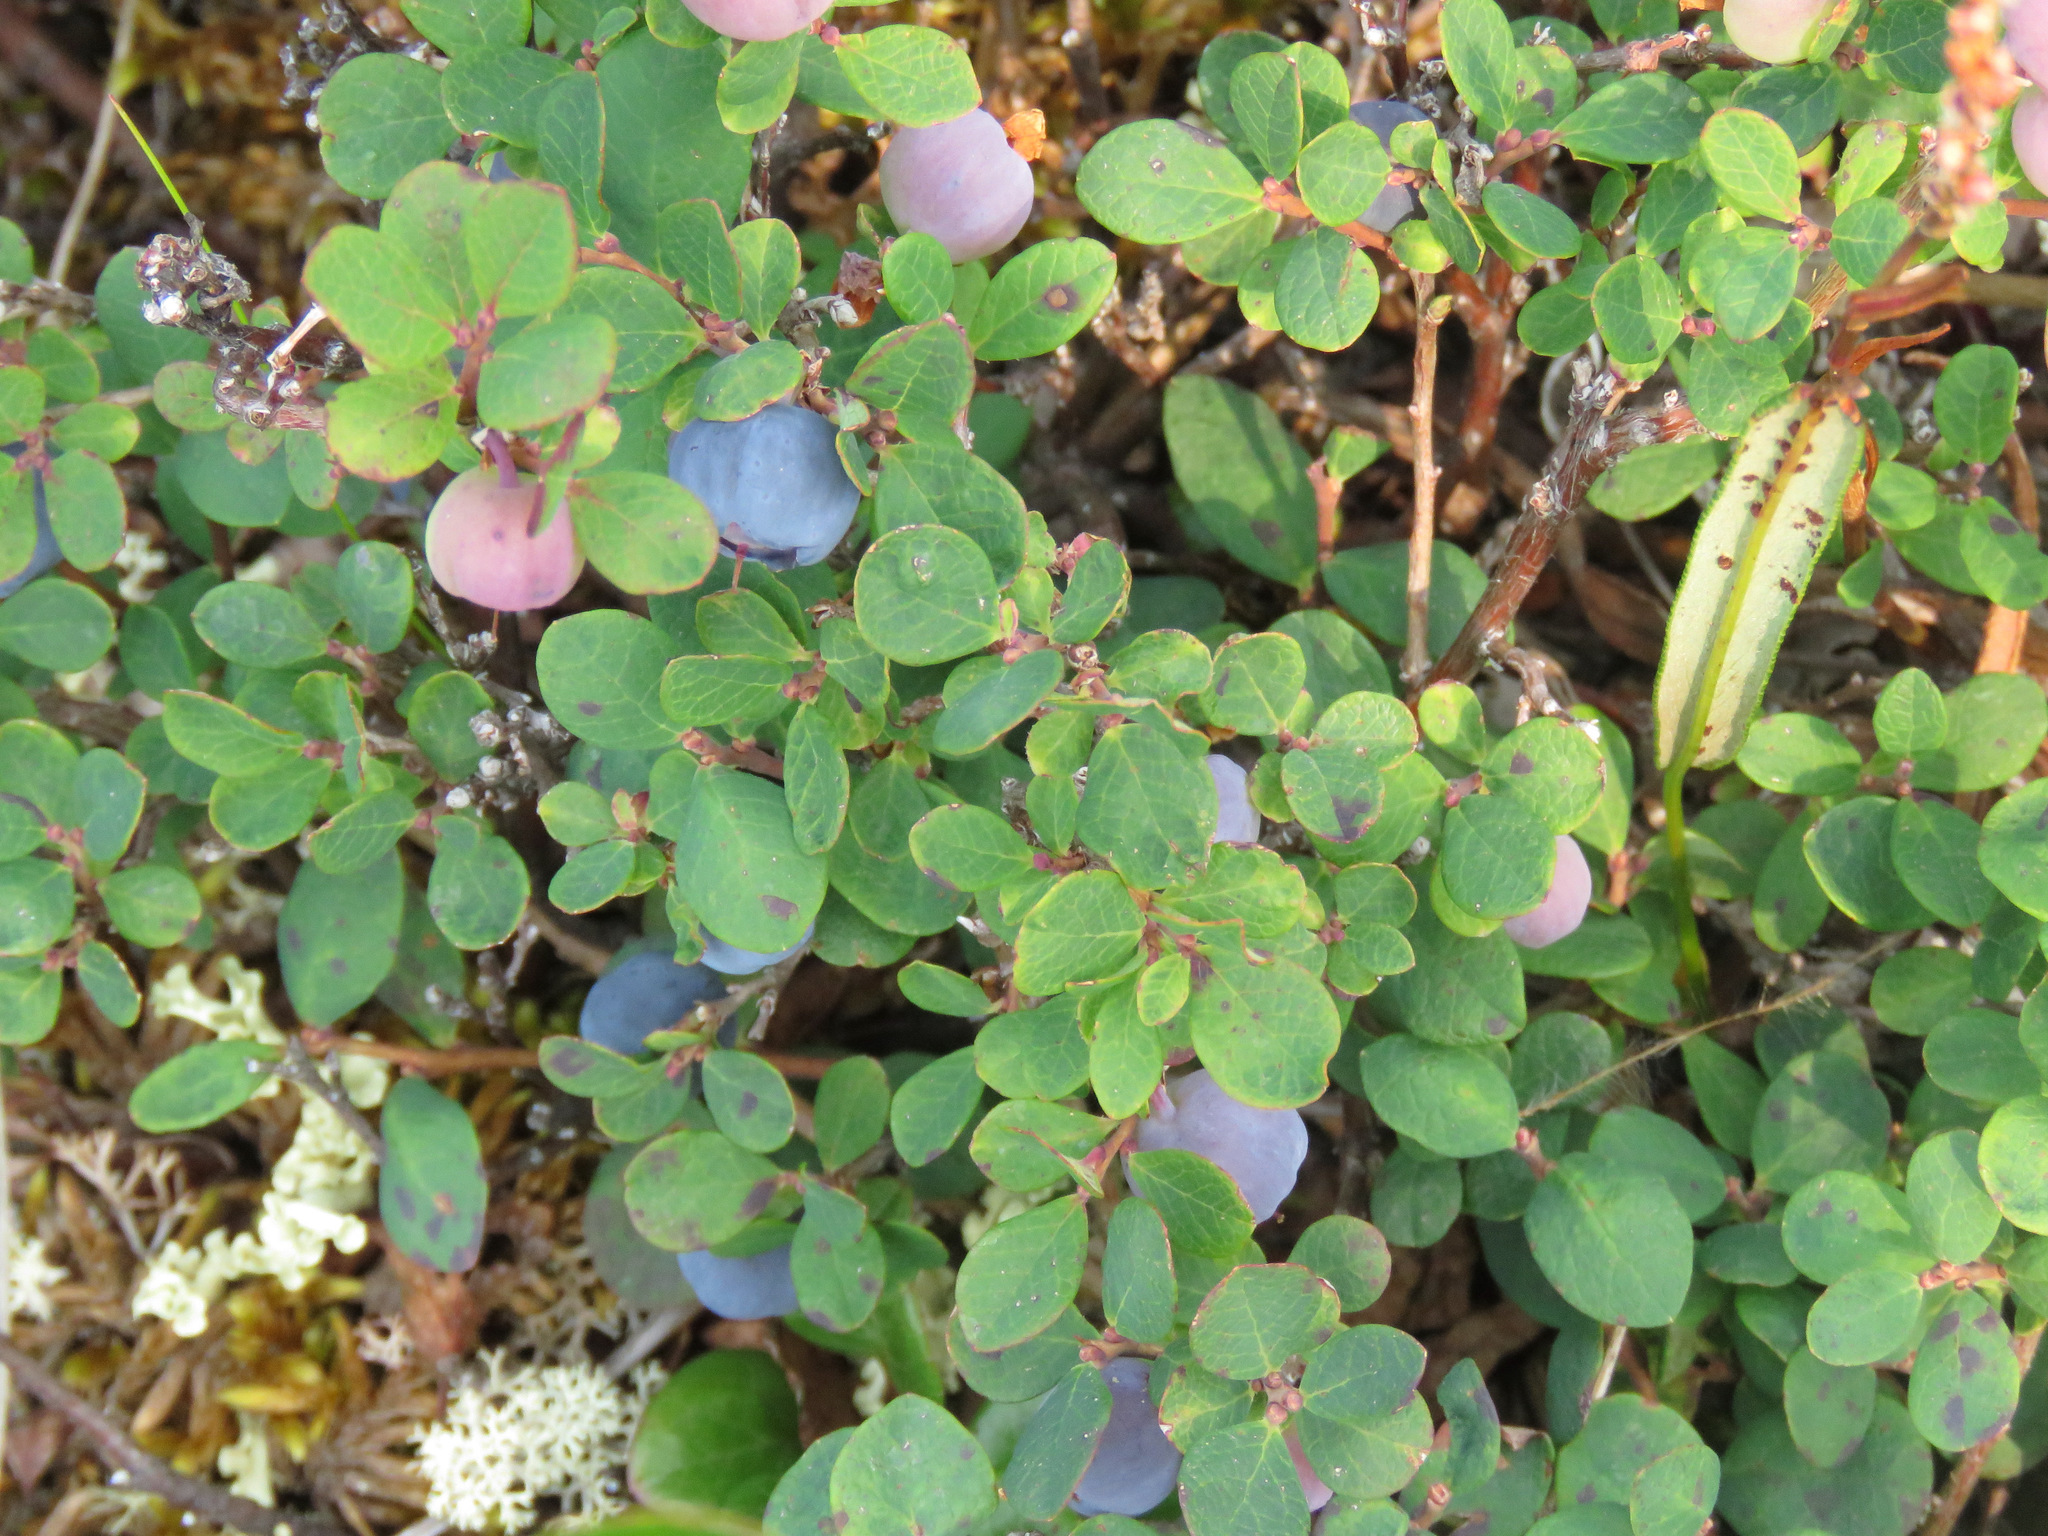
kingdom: Plantae
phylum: Tracheophyta
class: Magnoliopsida
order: Ericales
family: Ericaceae
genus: Vaccinium
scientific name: Vaccinium uliginosum
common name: Bog bilberry
